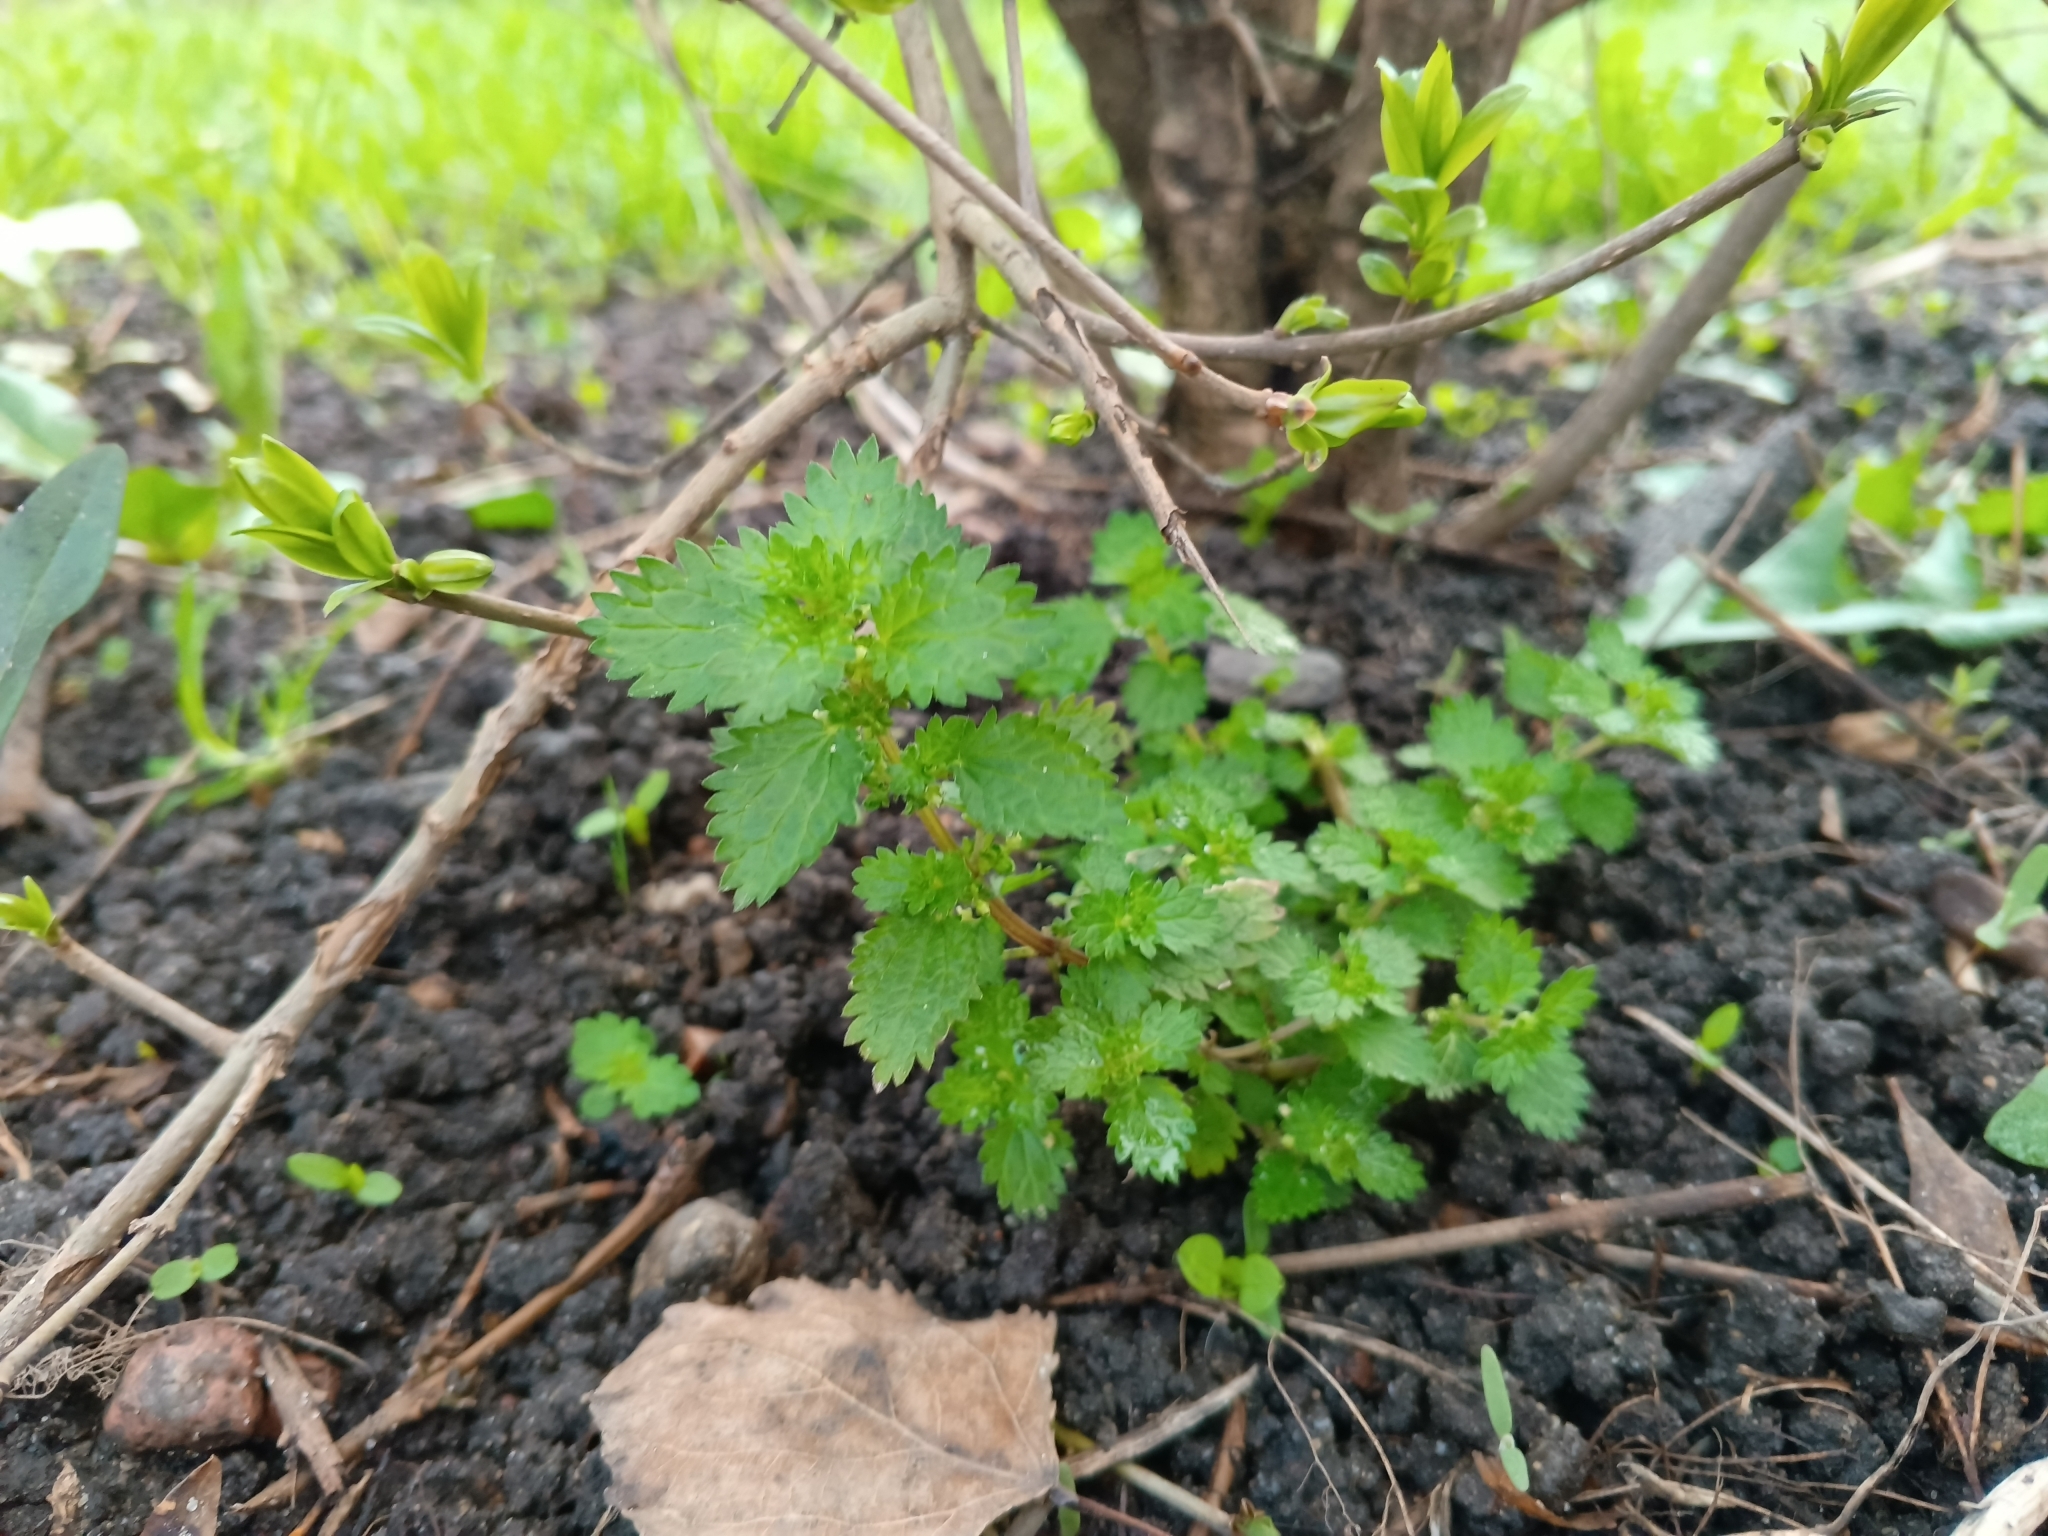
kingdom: Plantae
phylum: Tracheophyta
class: Magnoliopsida
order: Rosales
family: Urticaceae
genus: Urtica
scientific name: Urtica urens
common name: Dwarf nettle
